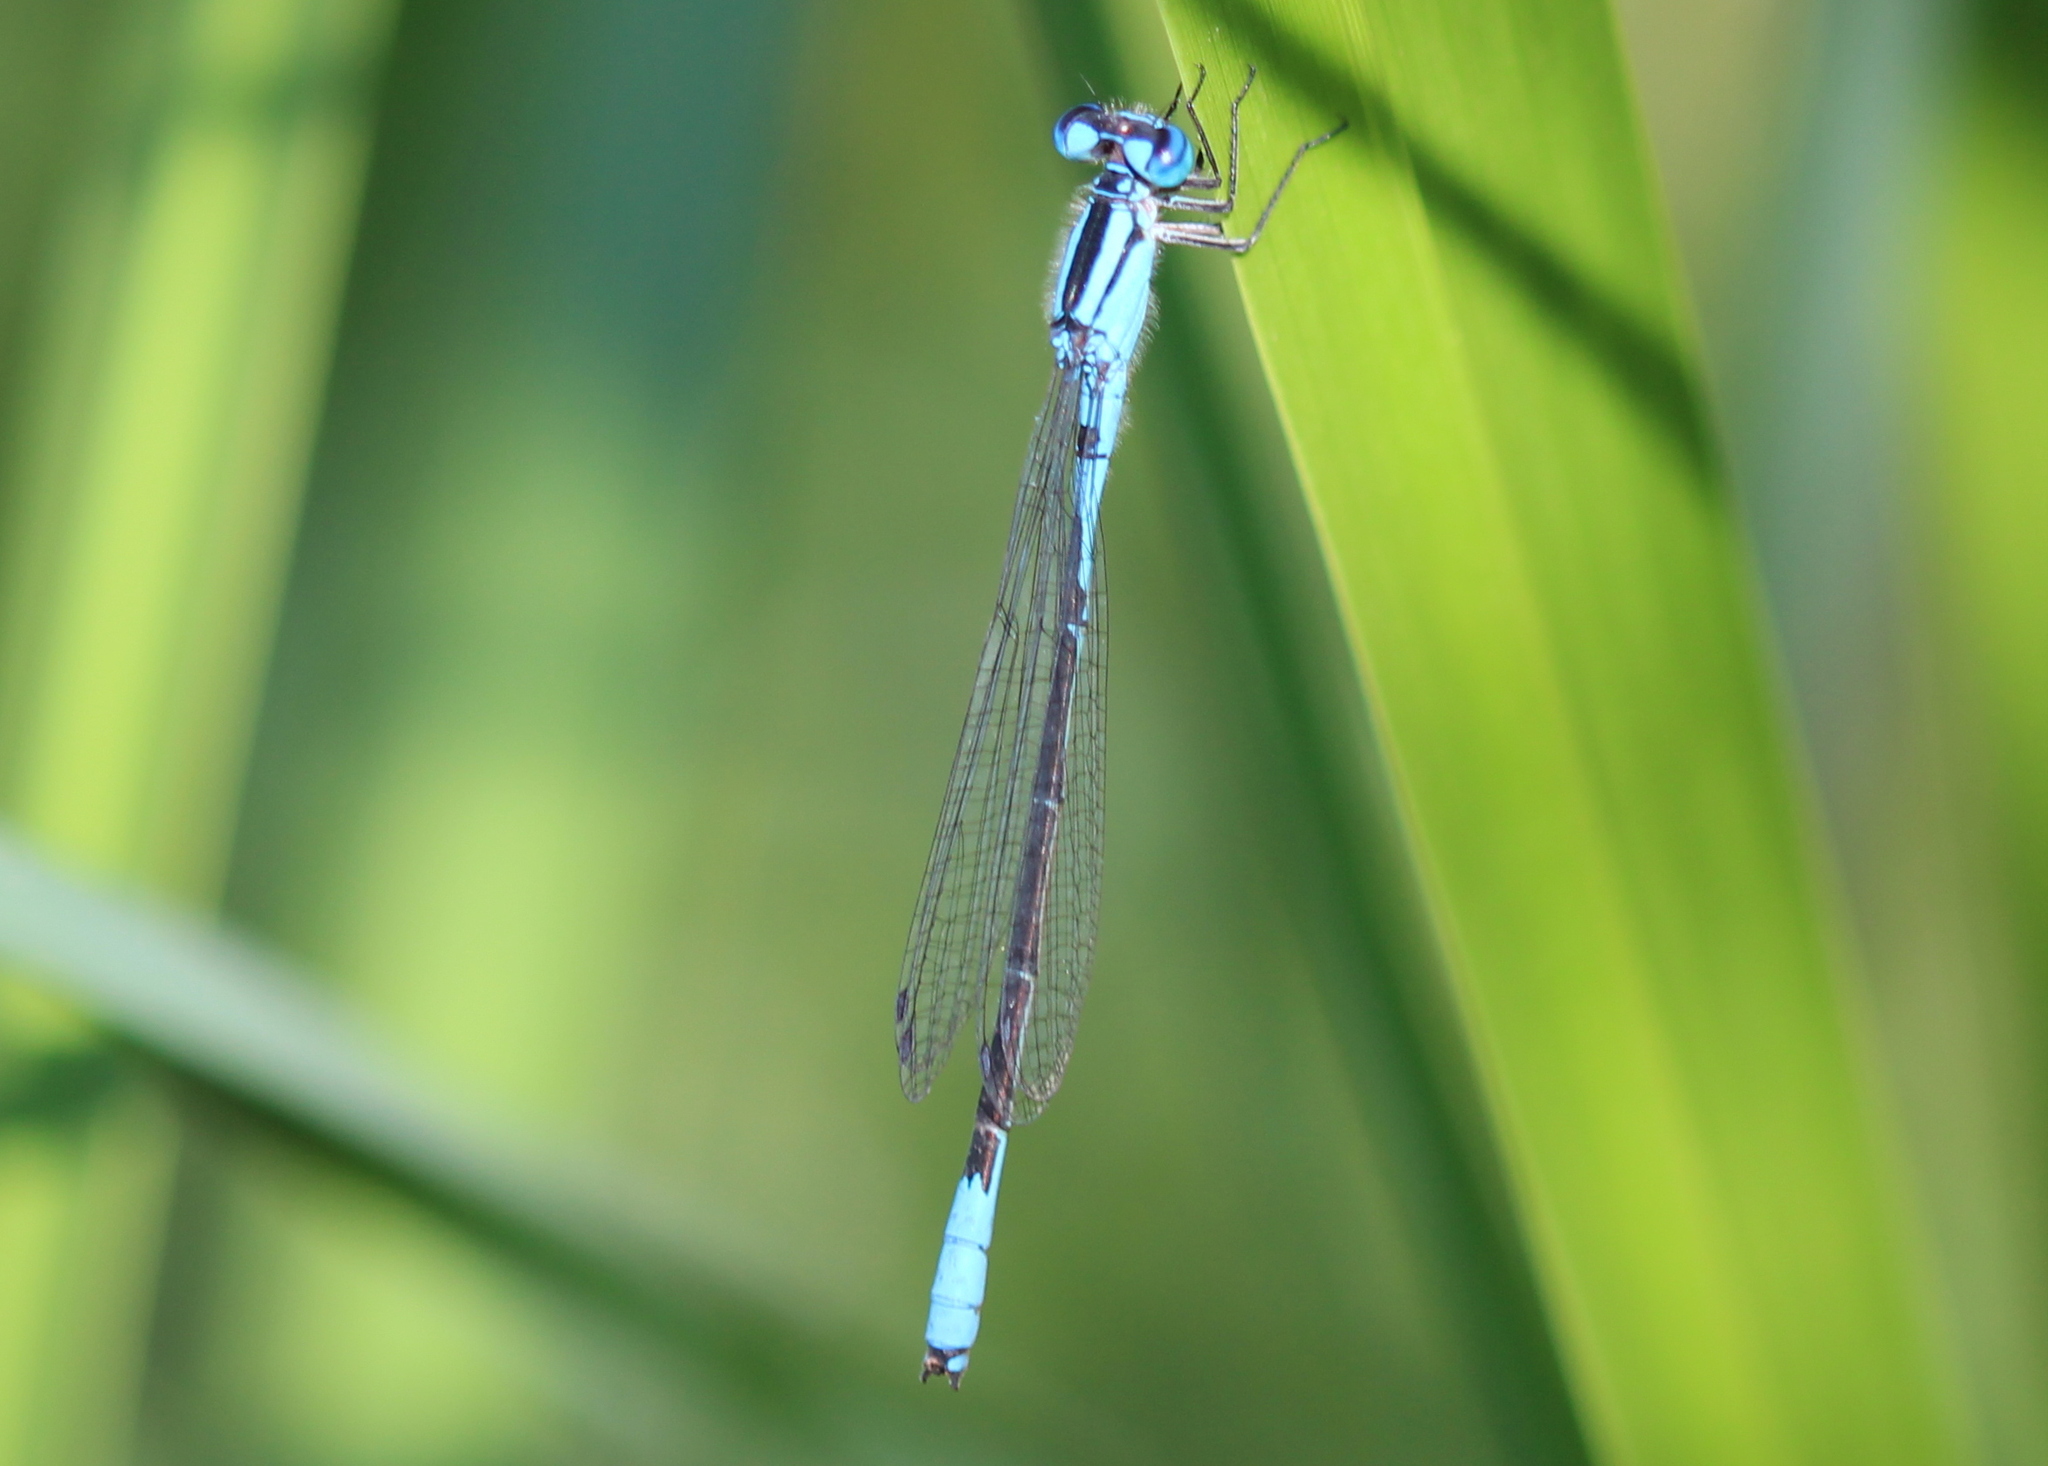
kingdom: Animalia
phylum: Arthropoda
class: Insecta
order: Odonata
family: Coenagrionidae
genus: Enallagma
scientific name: Enallagma aspersum
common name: Azure bluet
